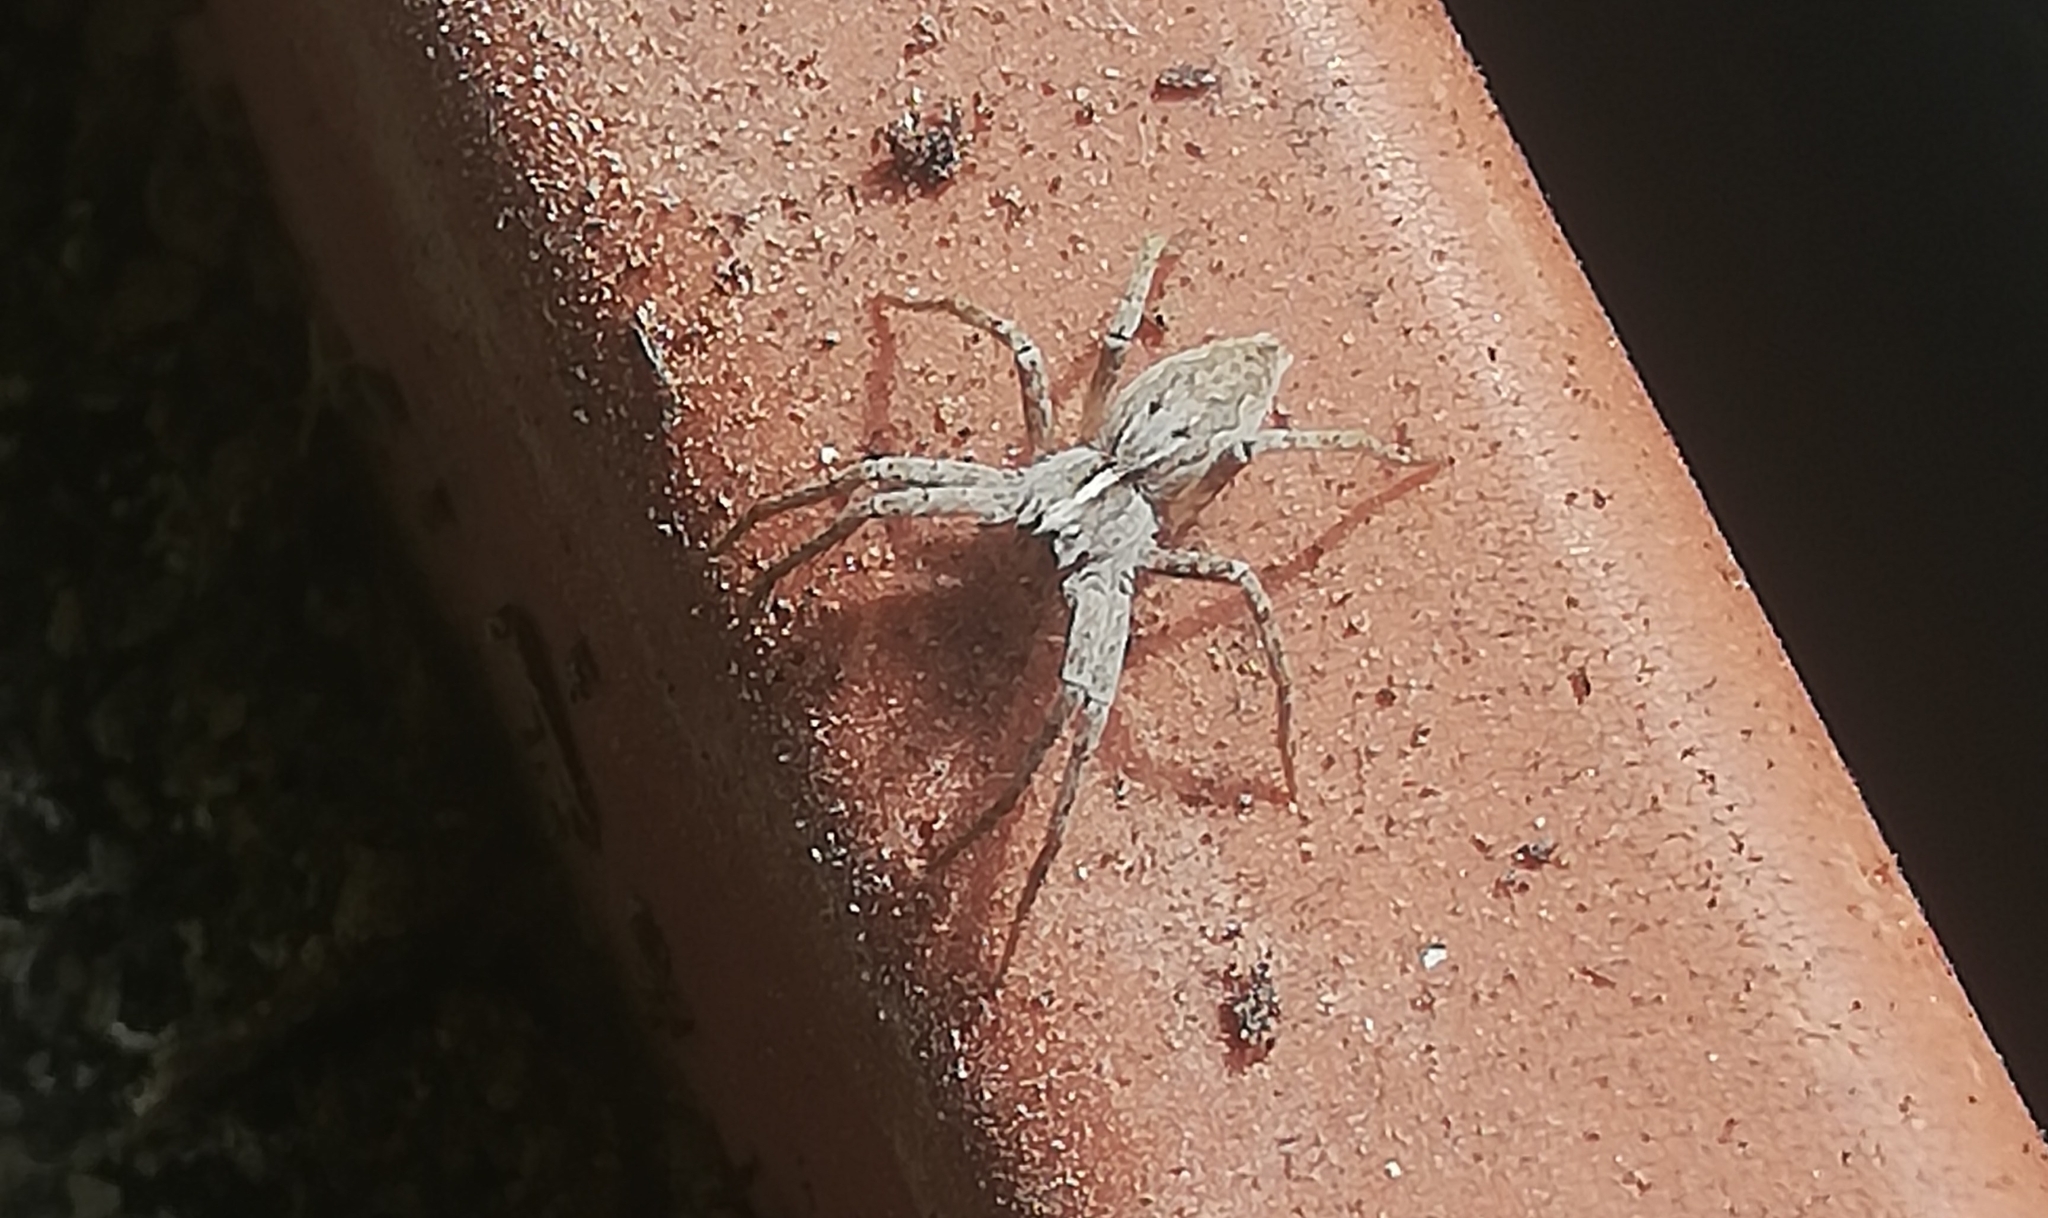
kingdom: Animalia
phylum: Arthropoda
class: Arachnida
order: Araneae
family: Pisauridae
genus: Pisaura
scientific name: Pisaura mirabilis
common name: Tent spider
